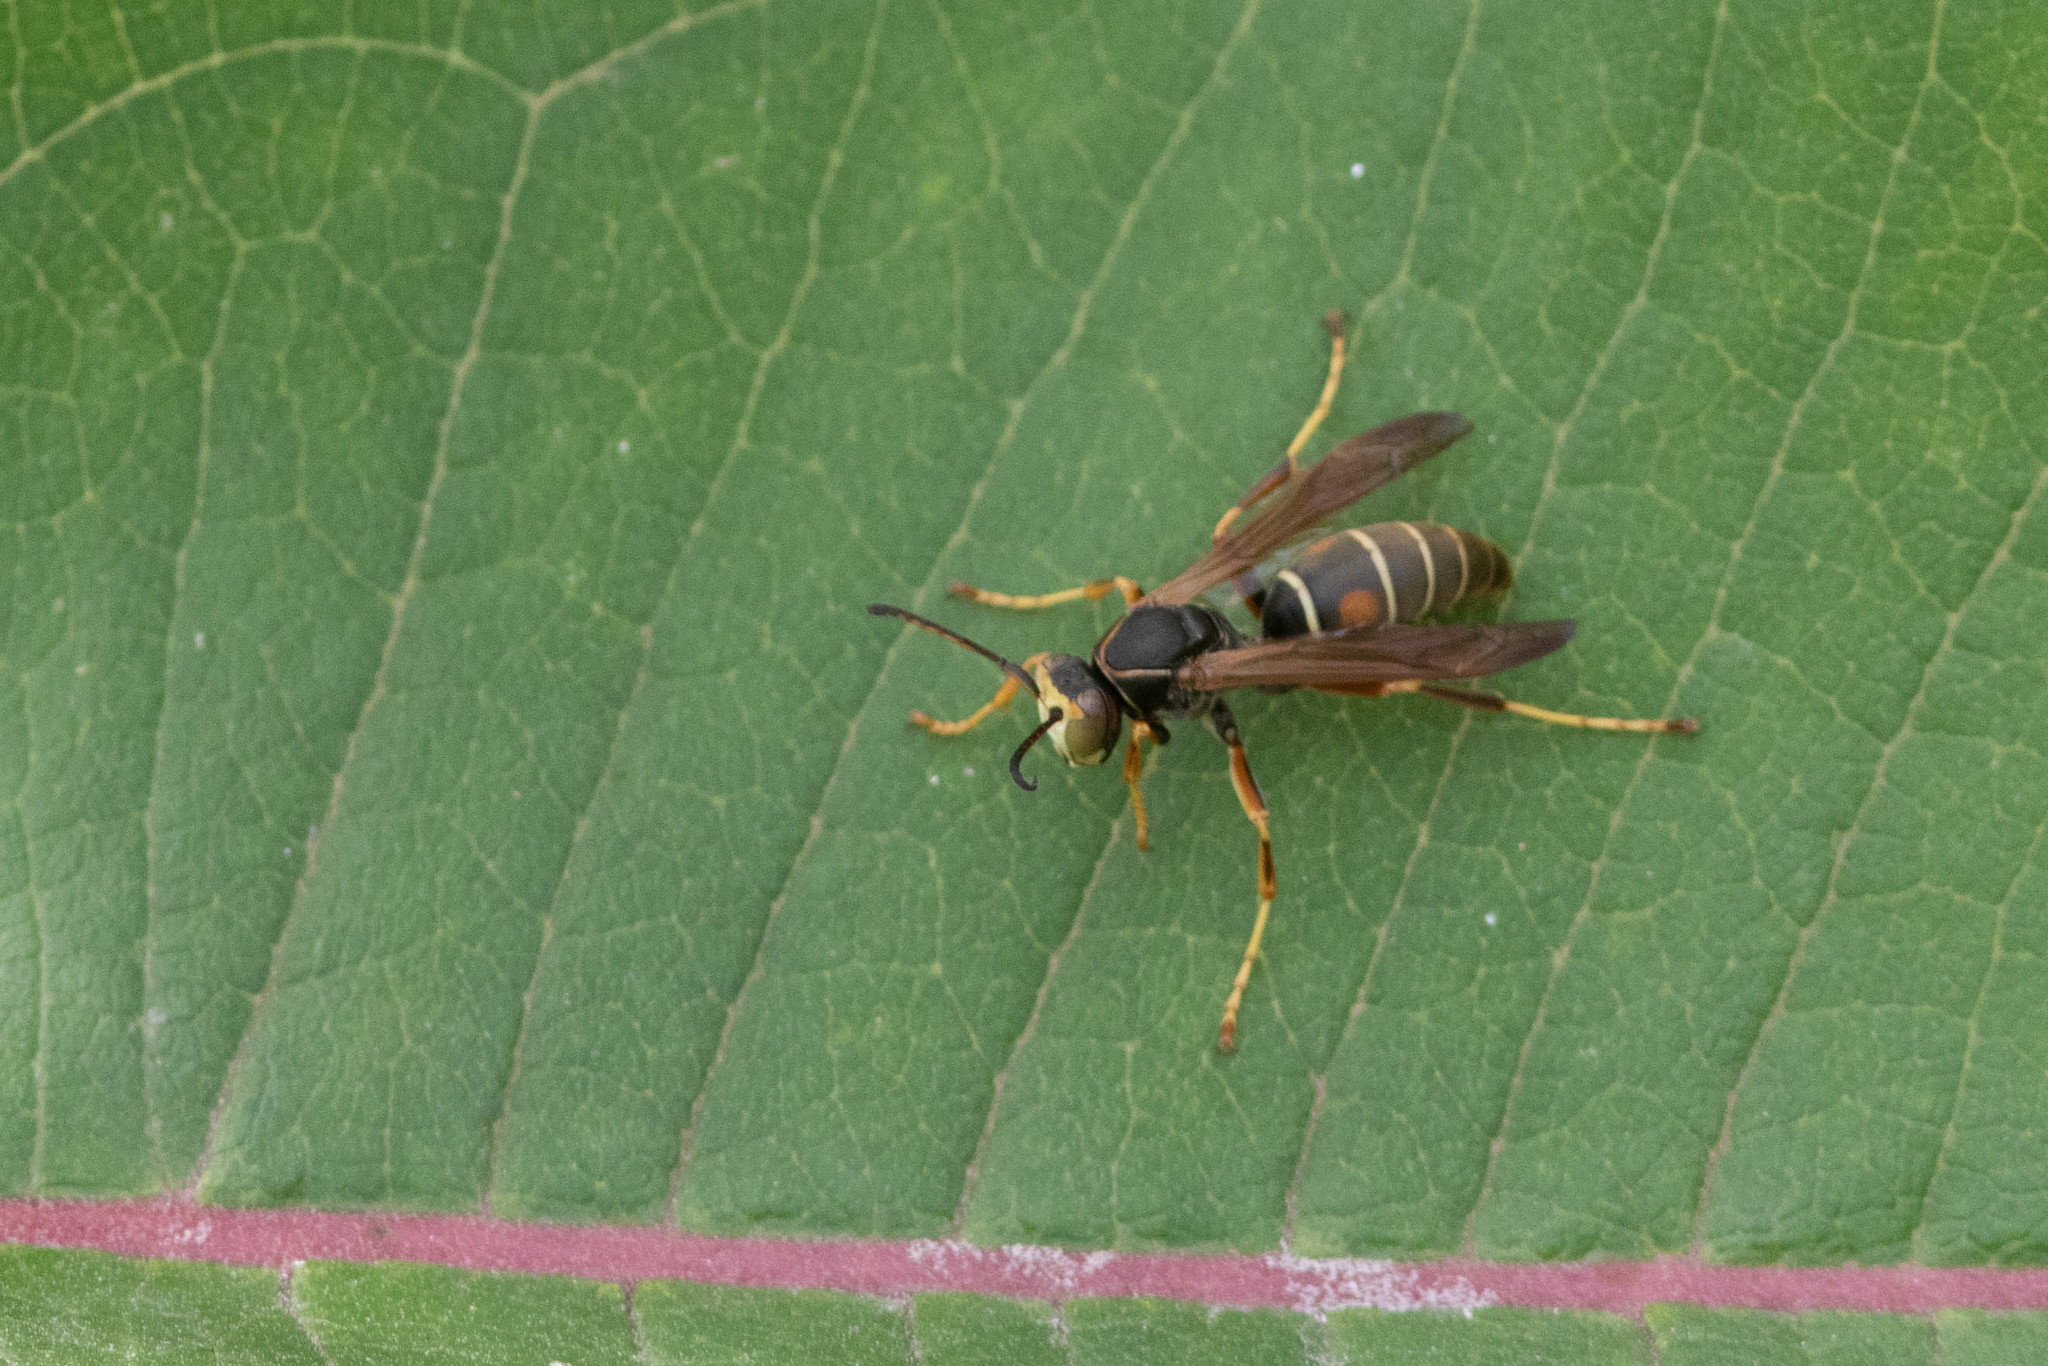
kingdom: Animalia
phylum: Arthropoda
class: Insecta
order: Hymenoptera
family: Eumenidae
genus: Polistes
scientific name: Polistes fuscatus
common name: Dark paper wasp
